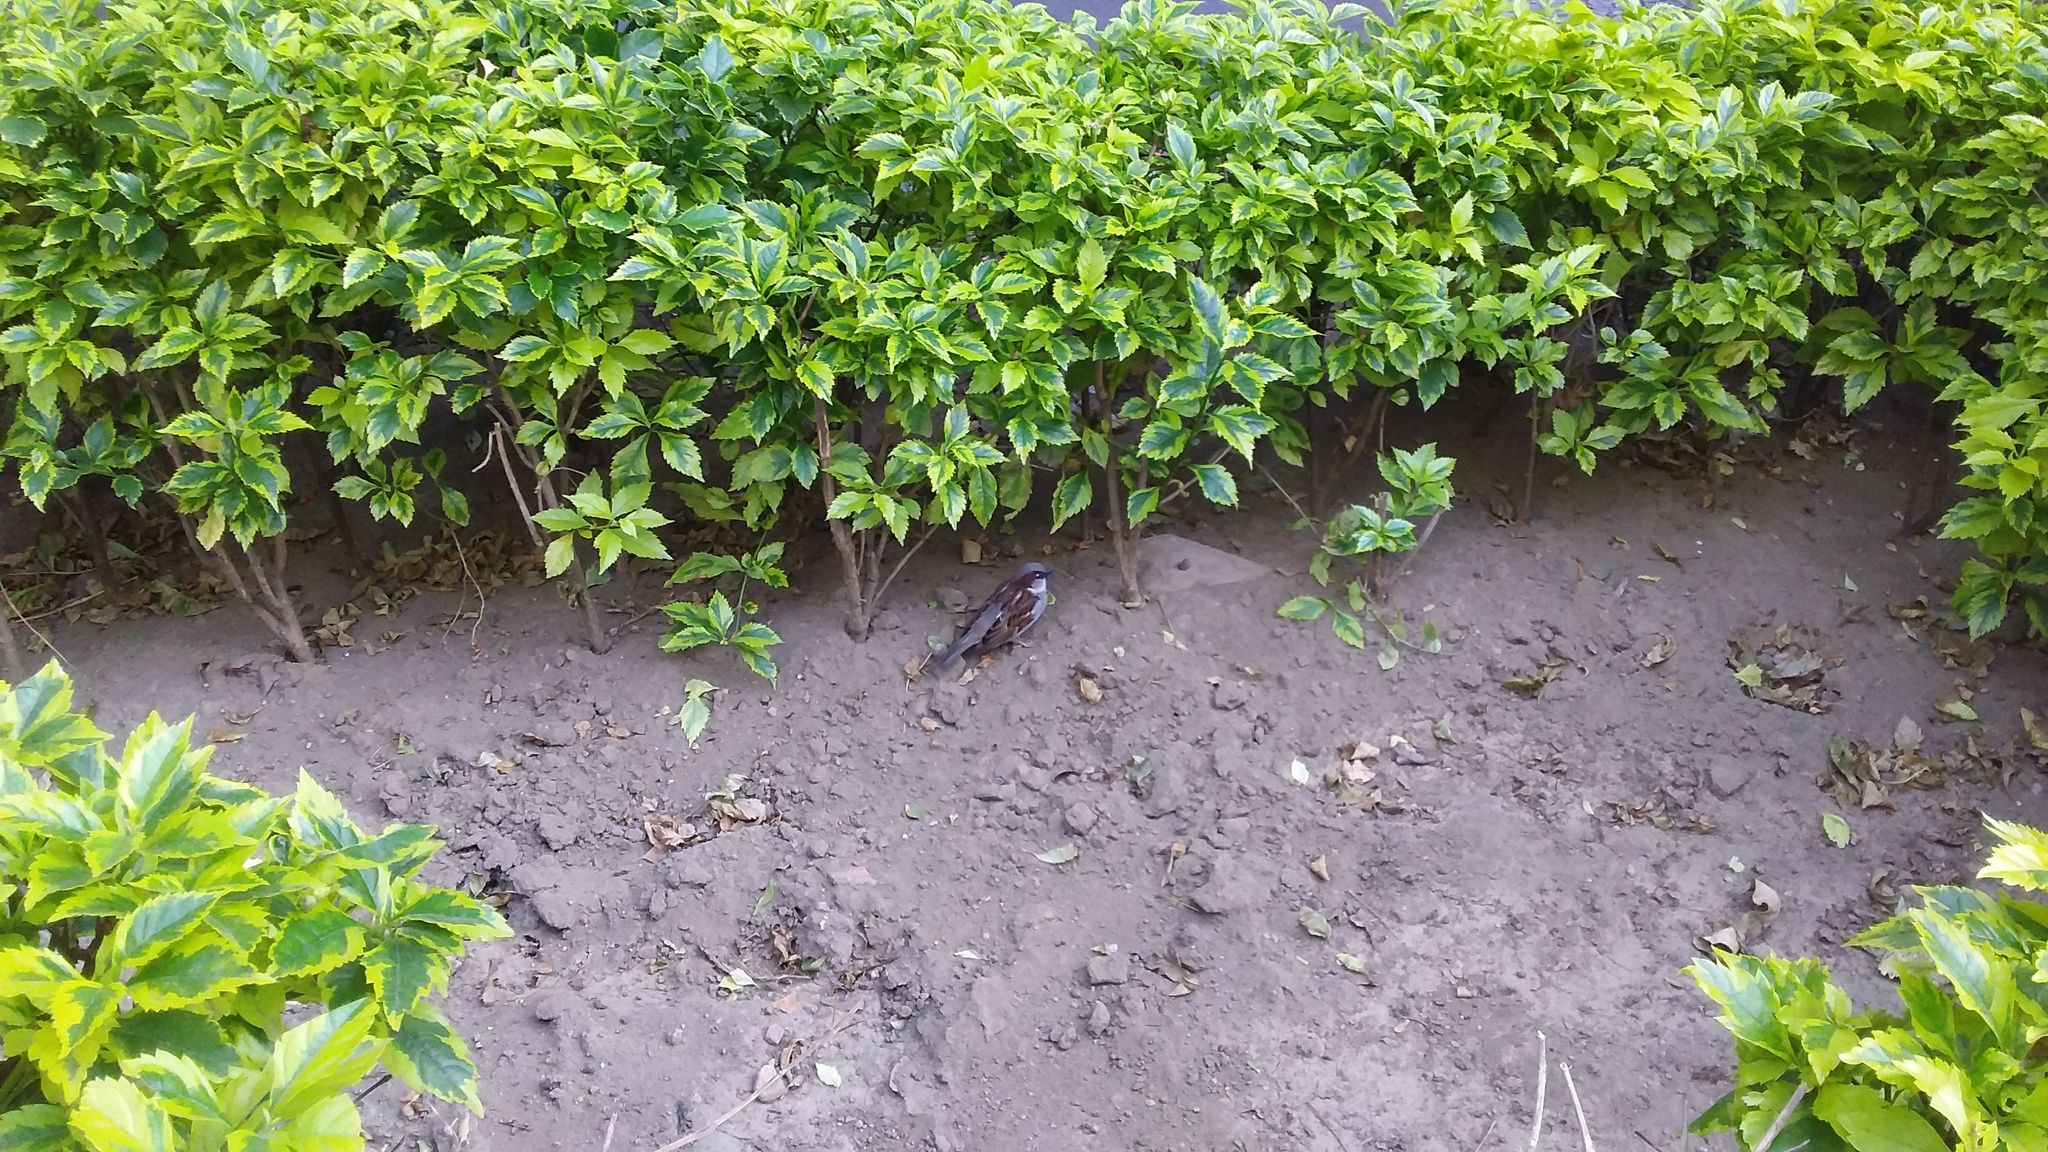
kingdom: Animalia
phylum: Chordata
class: Aves
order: Passeriformes
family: Passeridae
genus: Passer
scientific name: Passer domesticus
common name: House sparrow
